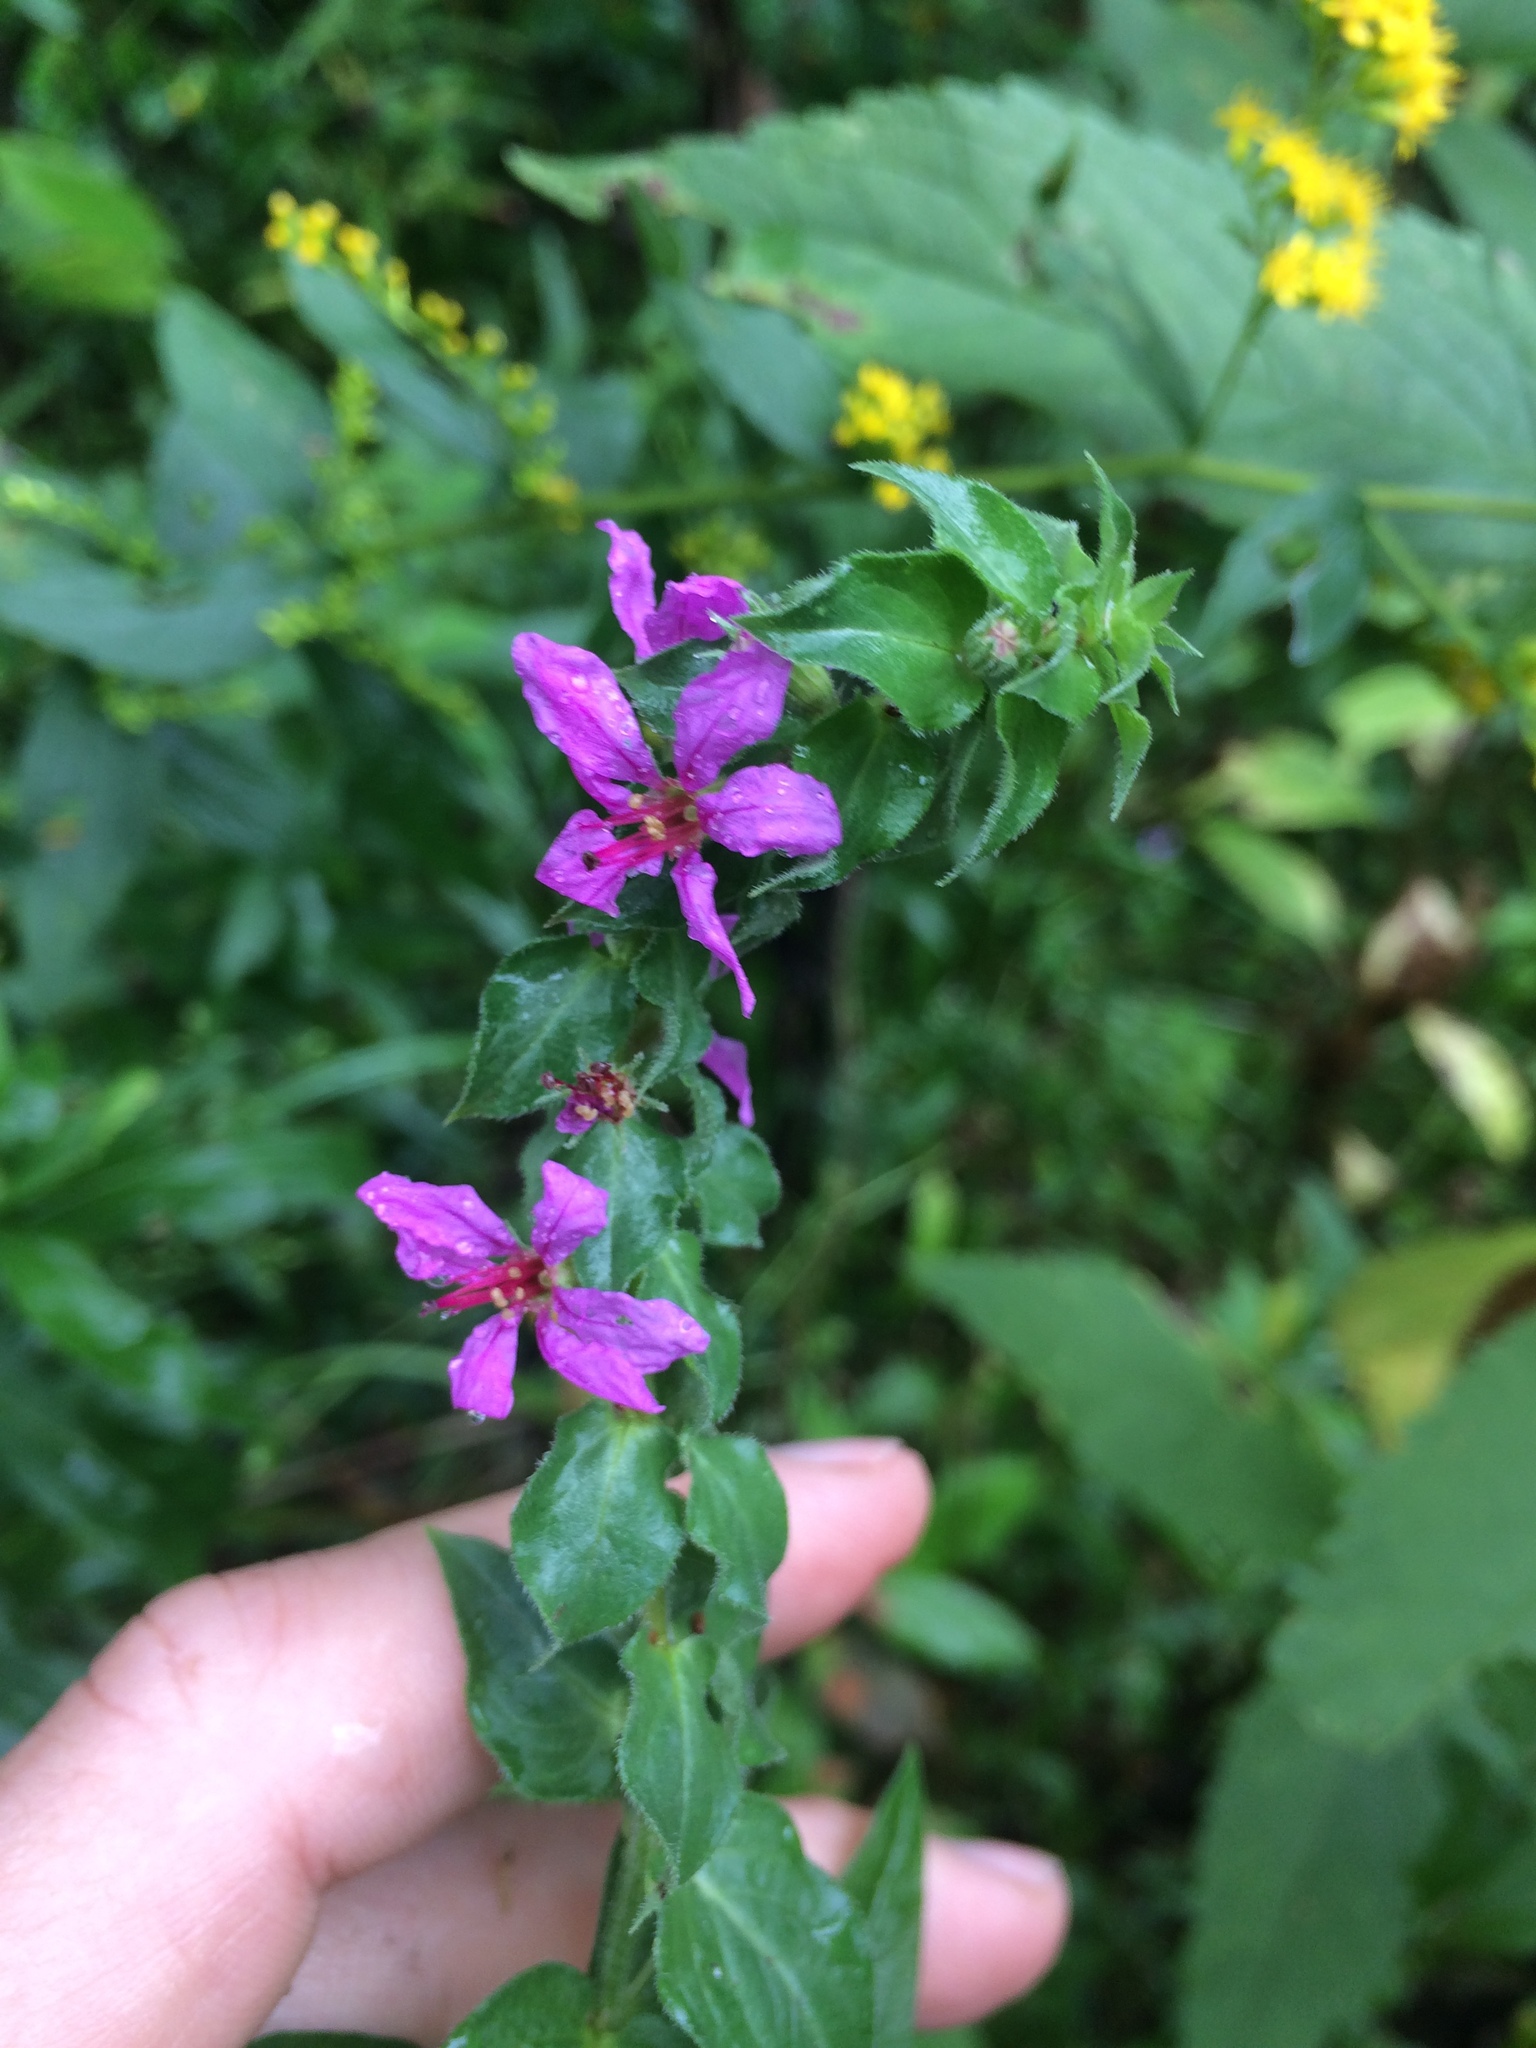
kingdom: Plantae
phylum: Tracheophyta
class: Magnoliopsida
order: Myrtales
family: Lythraceae
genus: Lythrum
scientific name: Lythrum salicaria
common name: Purple loosestrife
